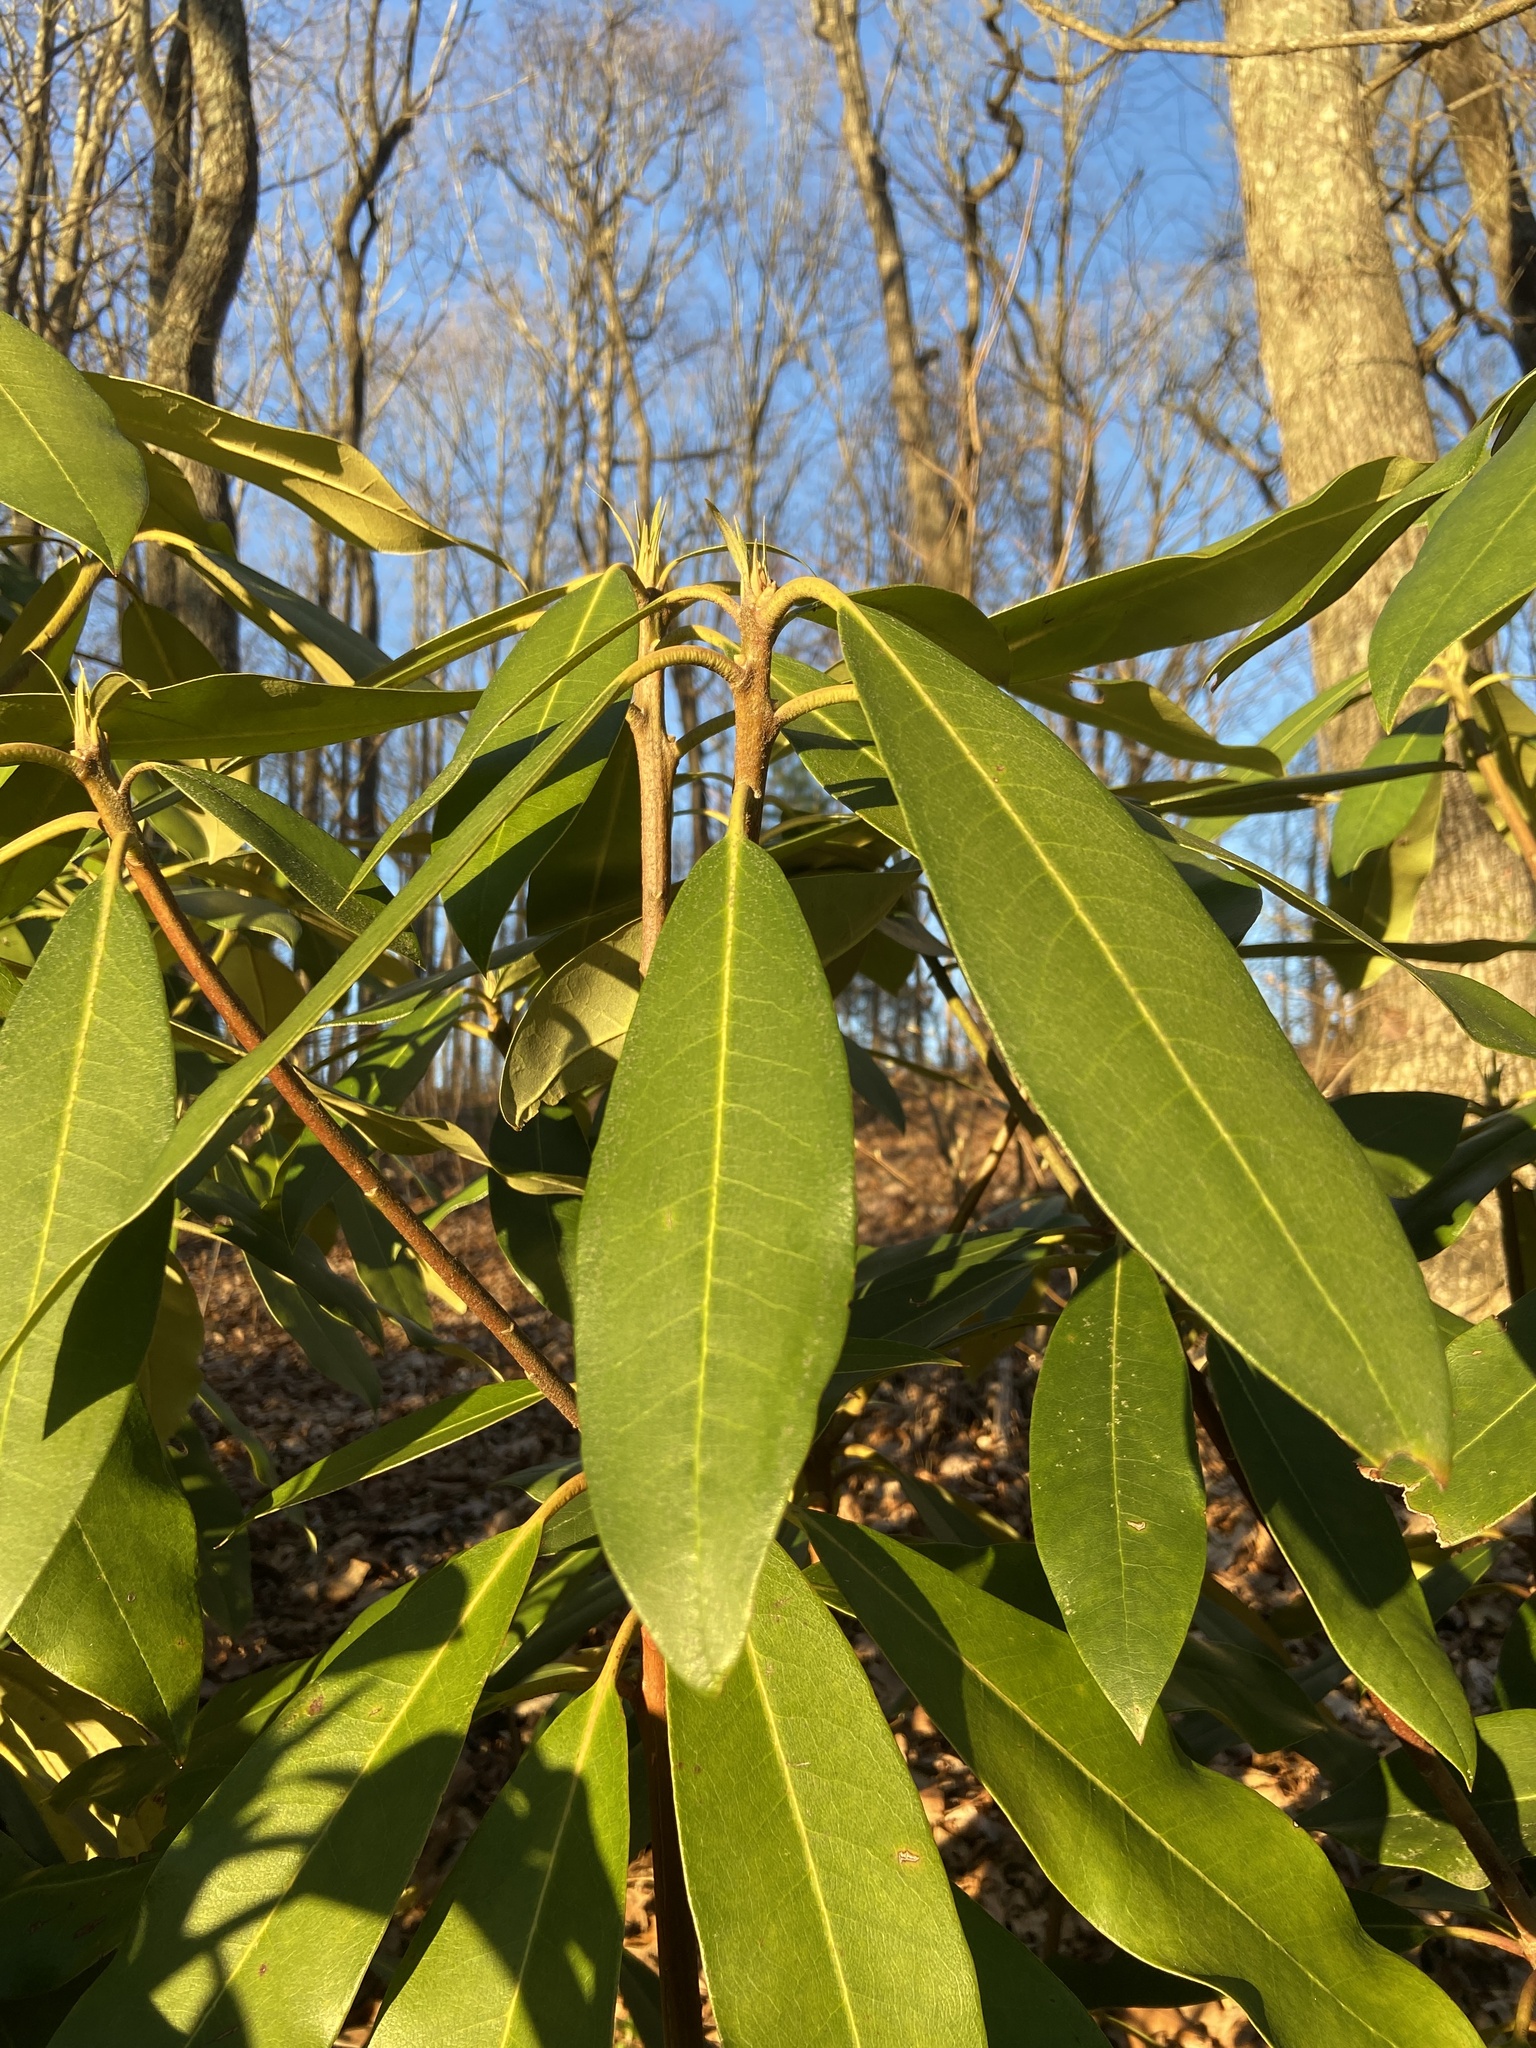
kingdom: Plantae
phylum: Tracheophyta
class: Magnoliopsida
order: Ericales
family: Ericaceae
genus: Rhododendron
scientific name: Rhododendron maximum
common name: Great rhododendron
